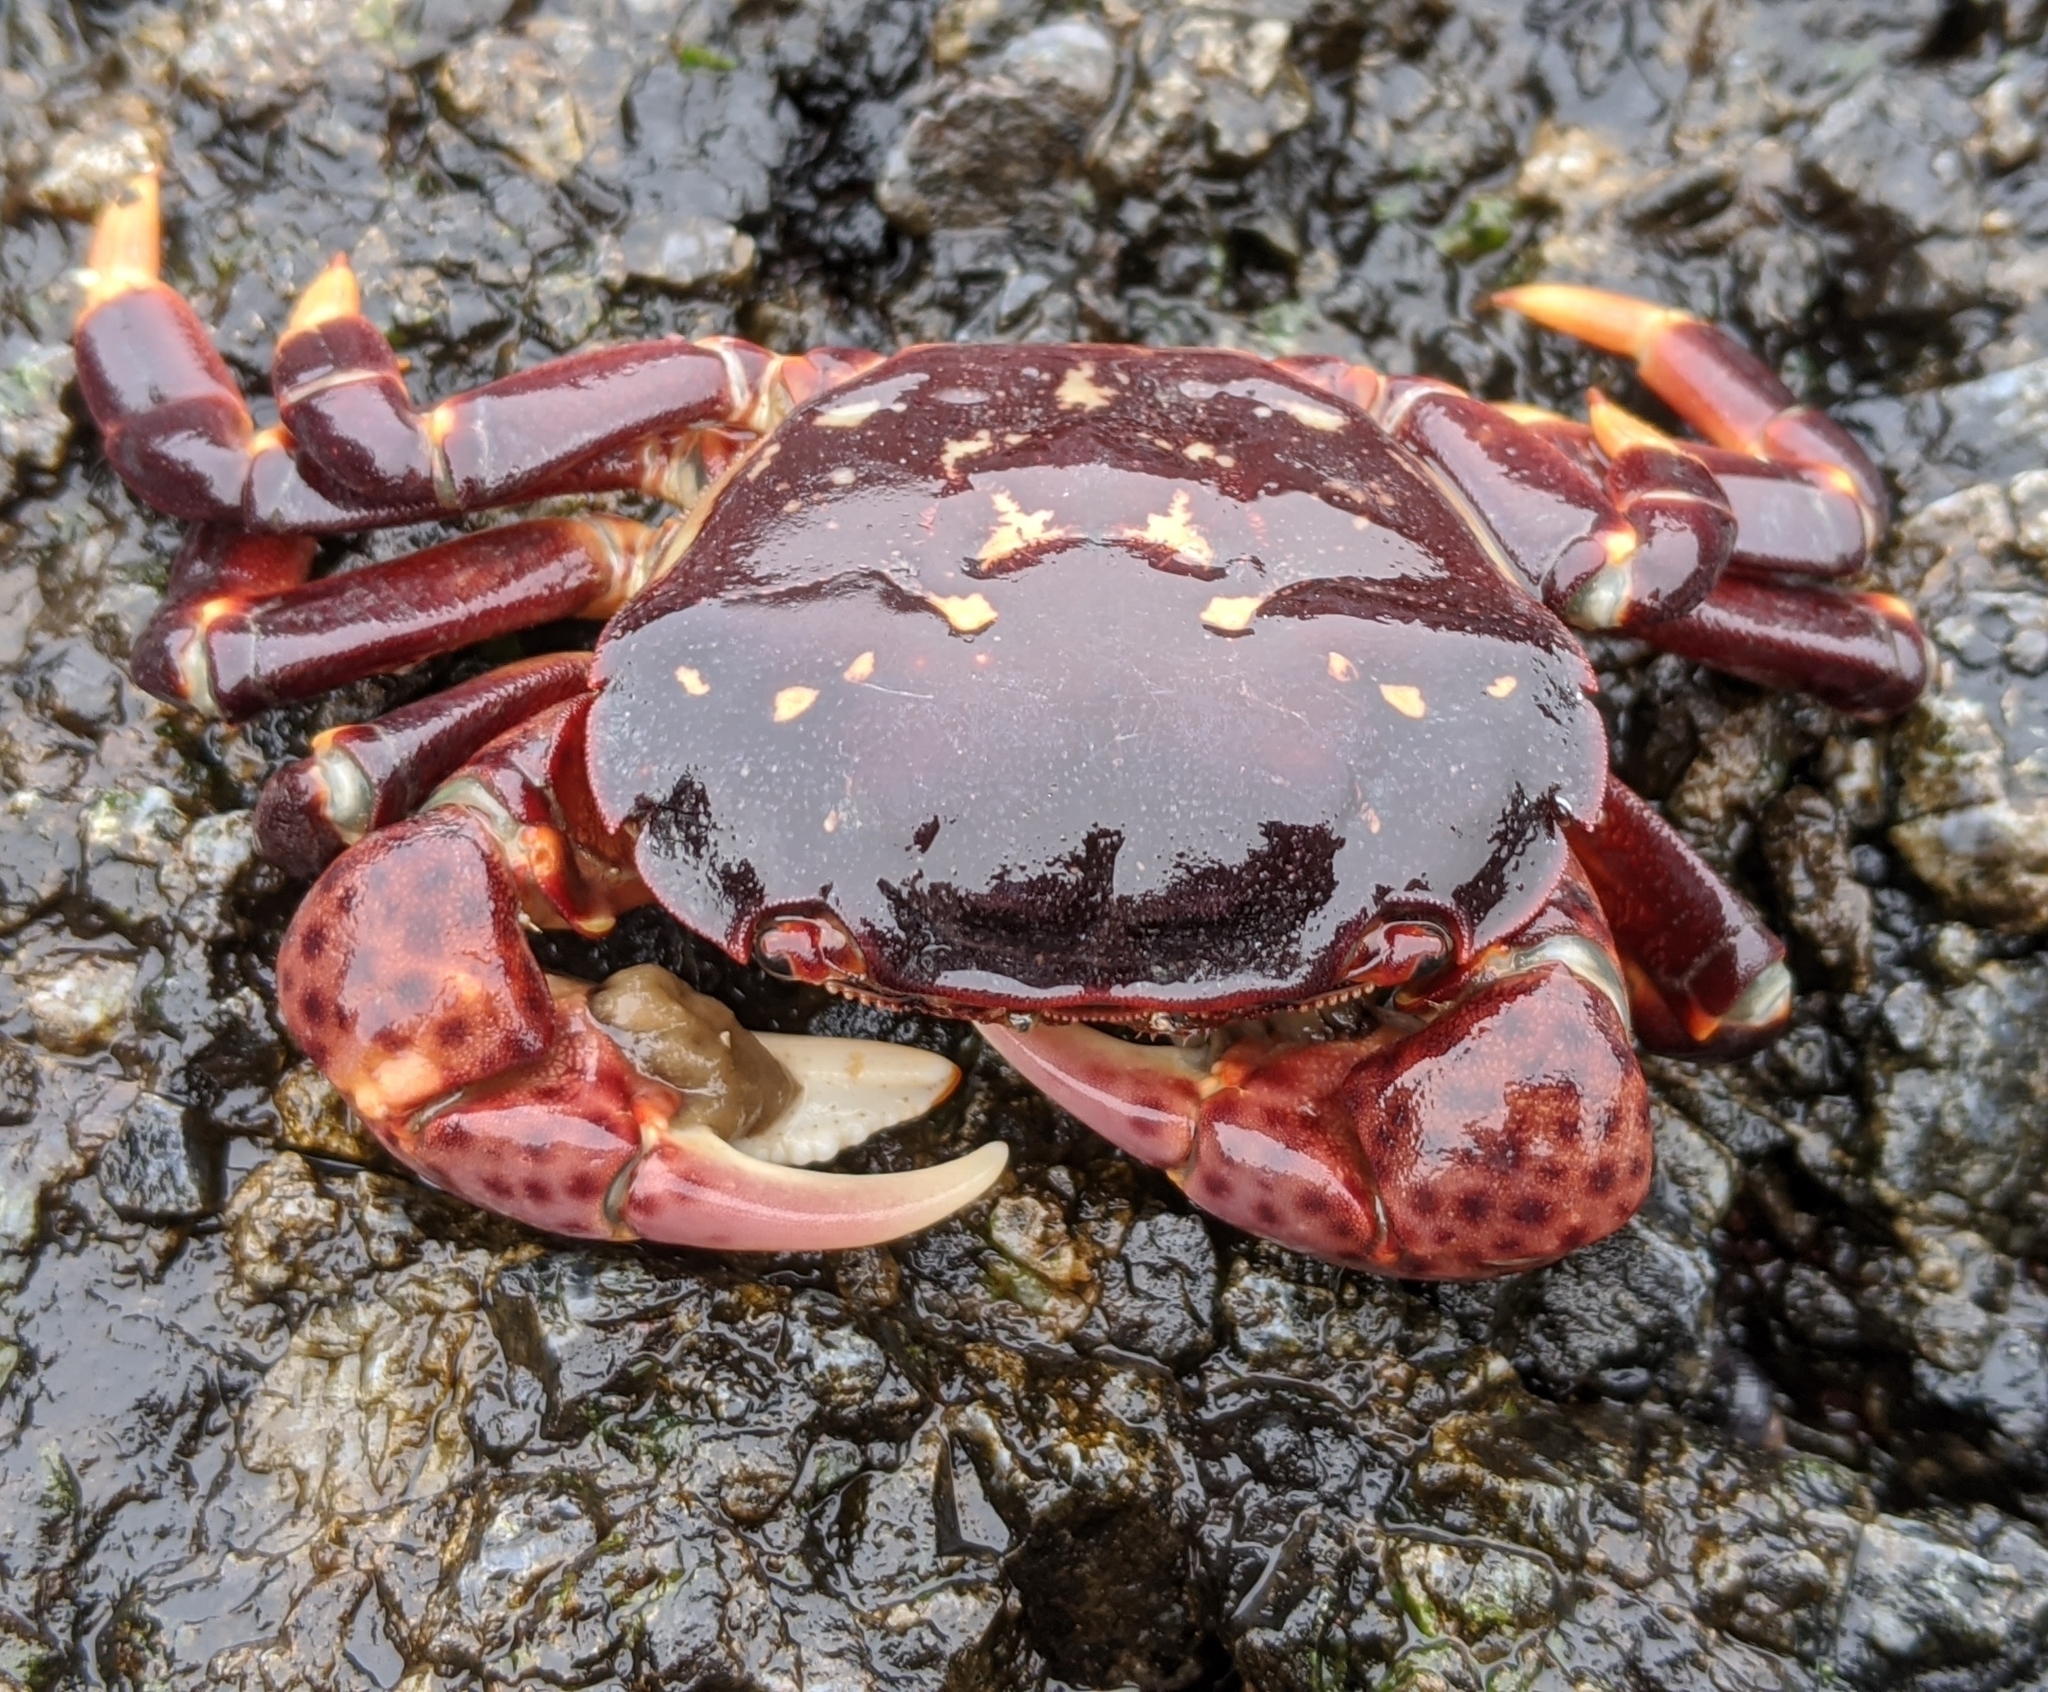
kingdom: Animalia
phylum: Arthropoda
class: Malacostraca
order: Decapoda
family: Varunidae
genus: Hemigrapsus
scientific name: Hemigrapsus nudus
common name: Purple shore crab
